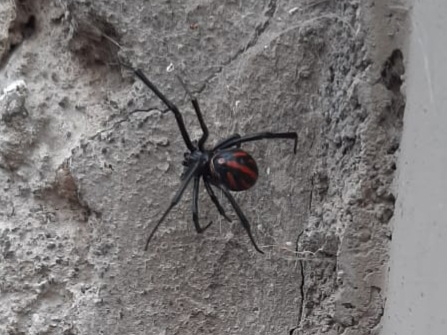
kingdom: Animalia
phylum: Arthropoda
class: Arachnida
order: Araneae
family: Theridiidae
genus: Latrodectus
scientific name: Latrodectus
